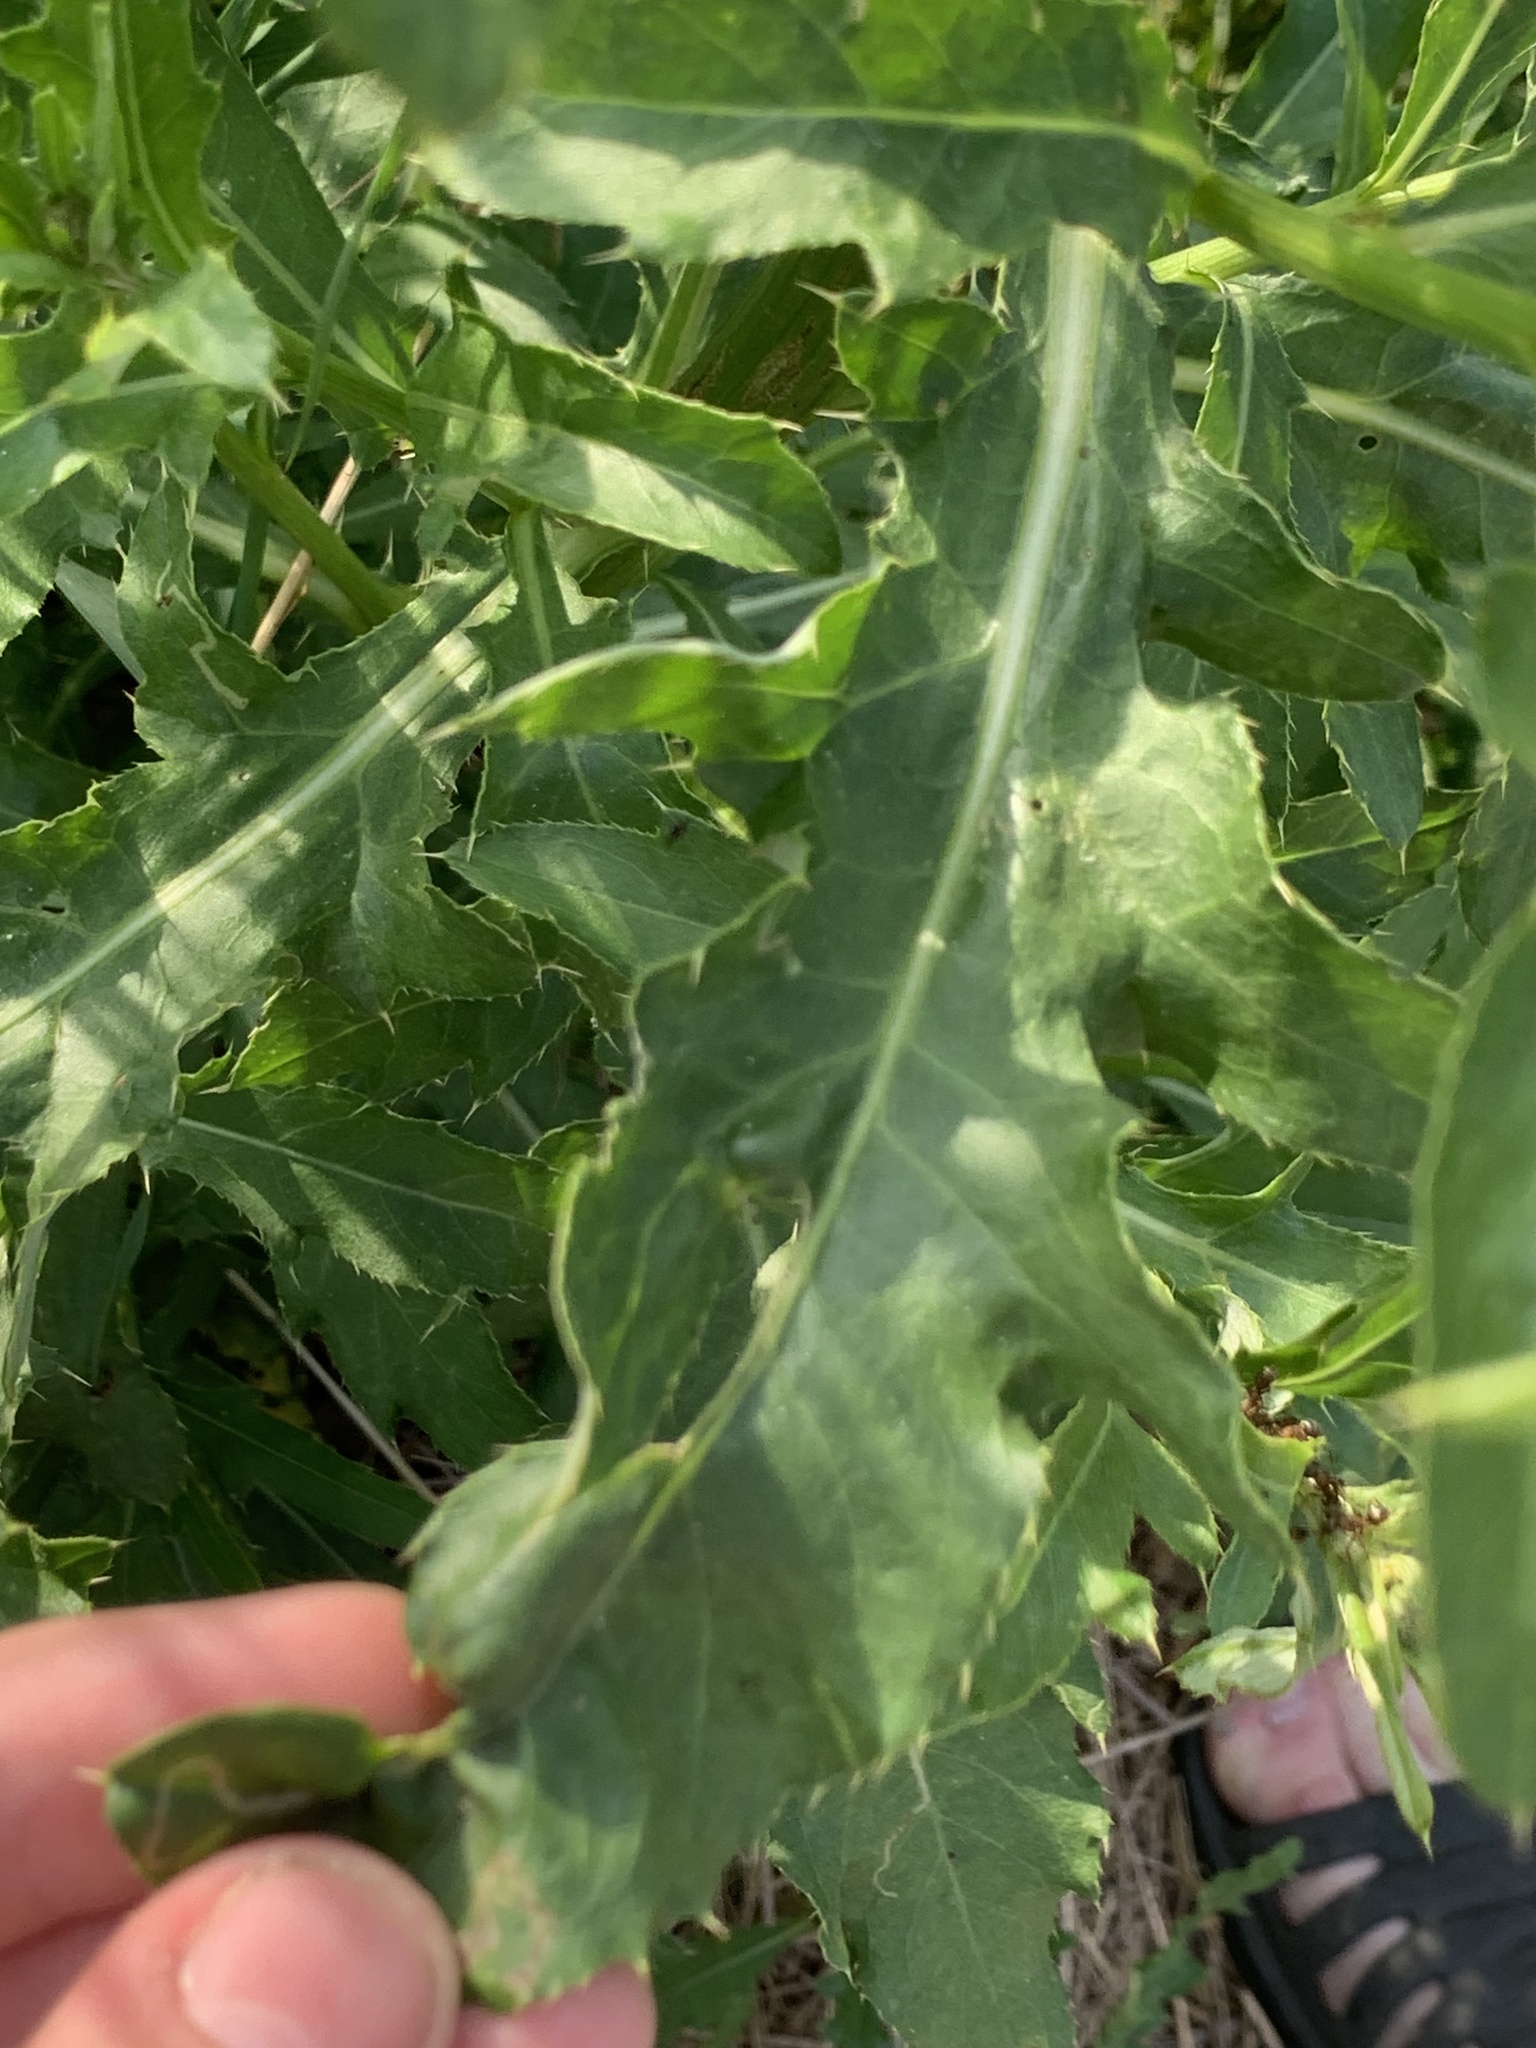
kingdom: Plantae
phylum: Tracheophyta
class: Magnoliopsida
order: Asterales
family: Asteraceae
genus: Cirsium
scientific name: Cirsium arvense
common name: Creeping thistle
